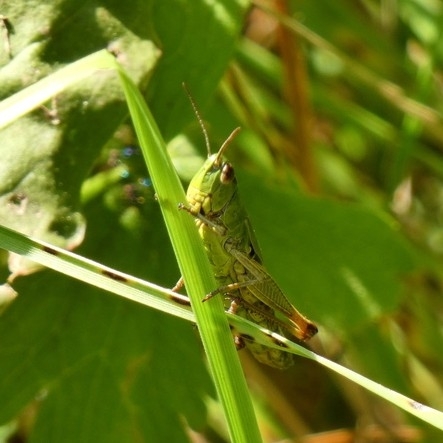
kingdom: Animalia
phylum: Arthropoda
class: Insecta
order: Orthoptera
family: Acrididae
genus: Pseudochorthippus
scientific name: Pseudochorthippus parallelus
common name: Meadow grasshopper
